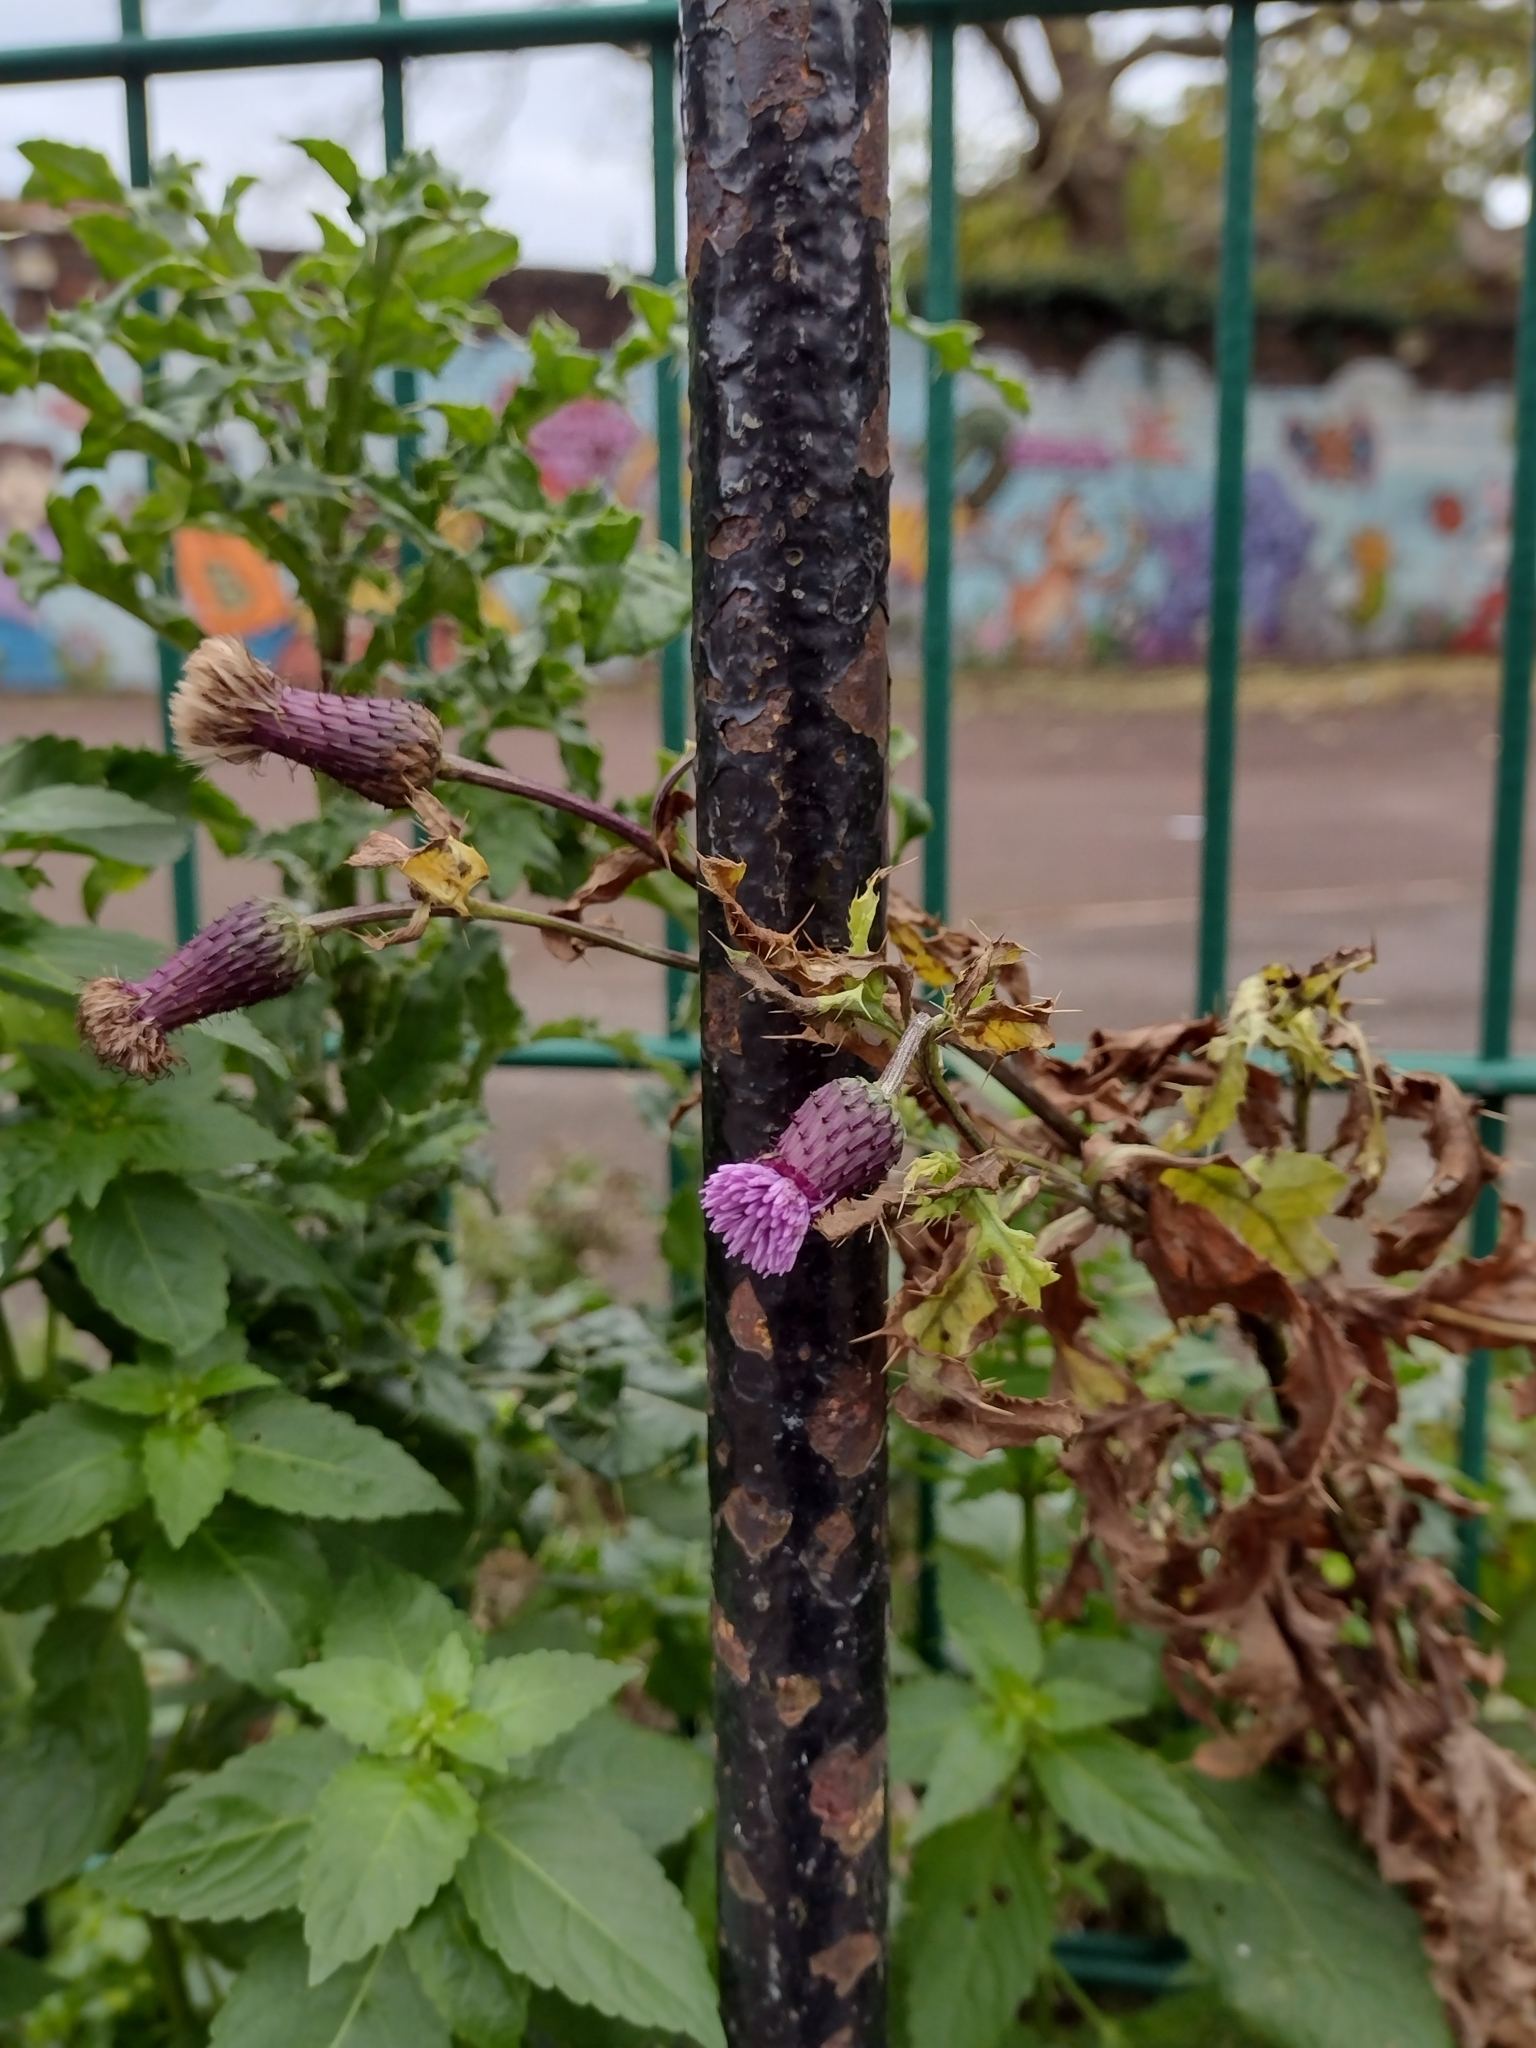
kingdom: Plantae
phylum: Tracheophyta
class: Magnoliopsida
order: Asterales
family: Asteraceae
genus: Cirsium
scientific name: Cirsium arvense
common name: Creeping thistle
